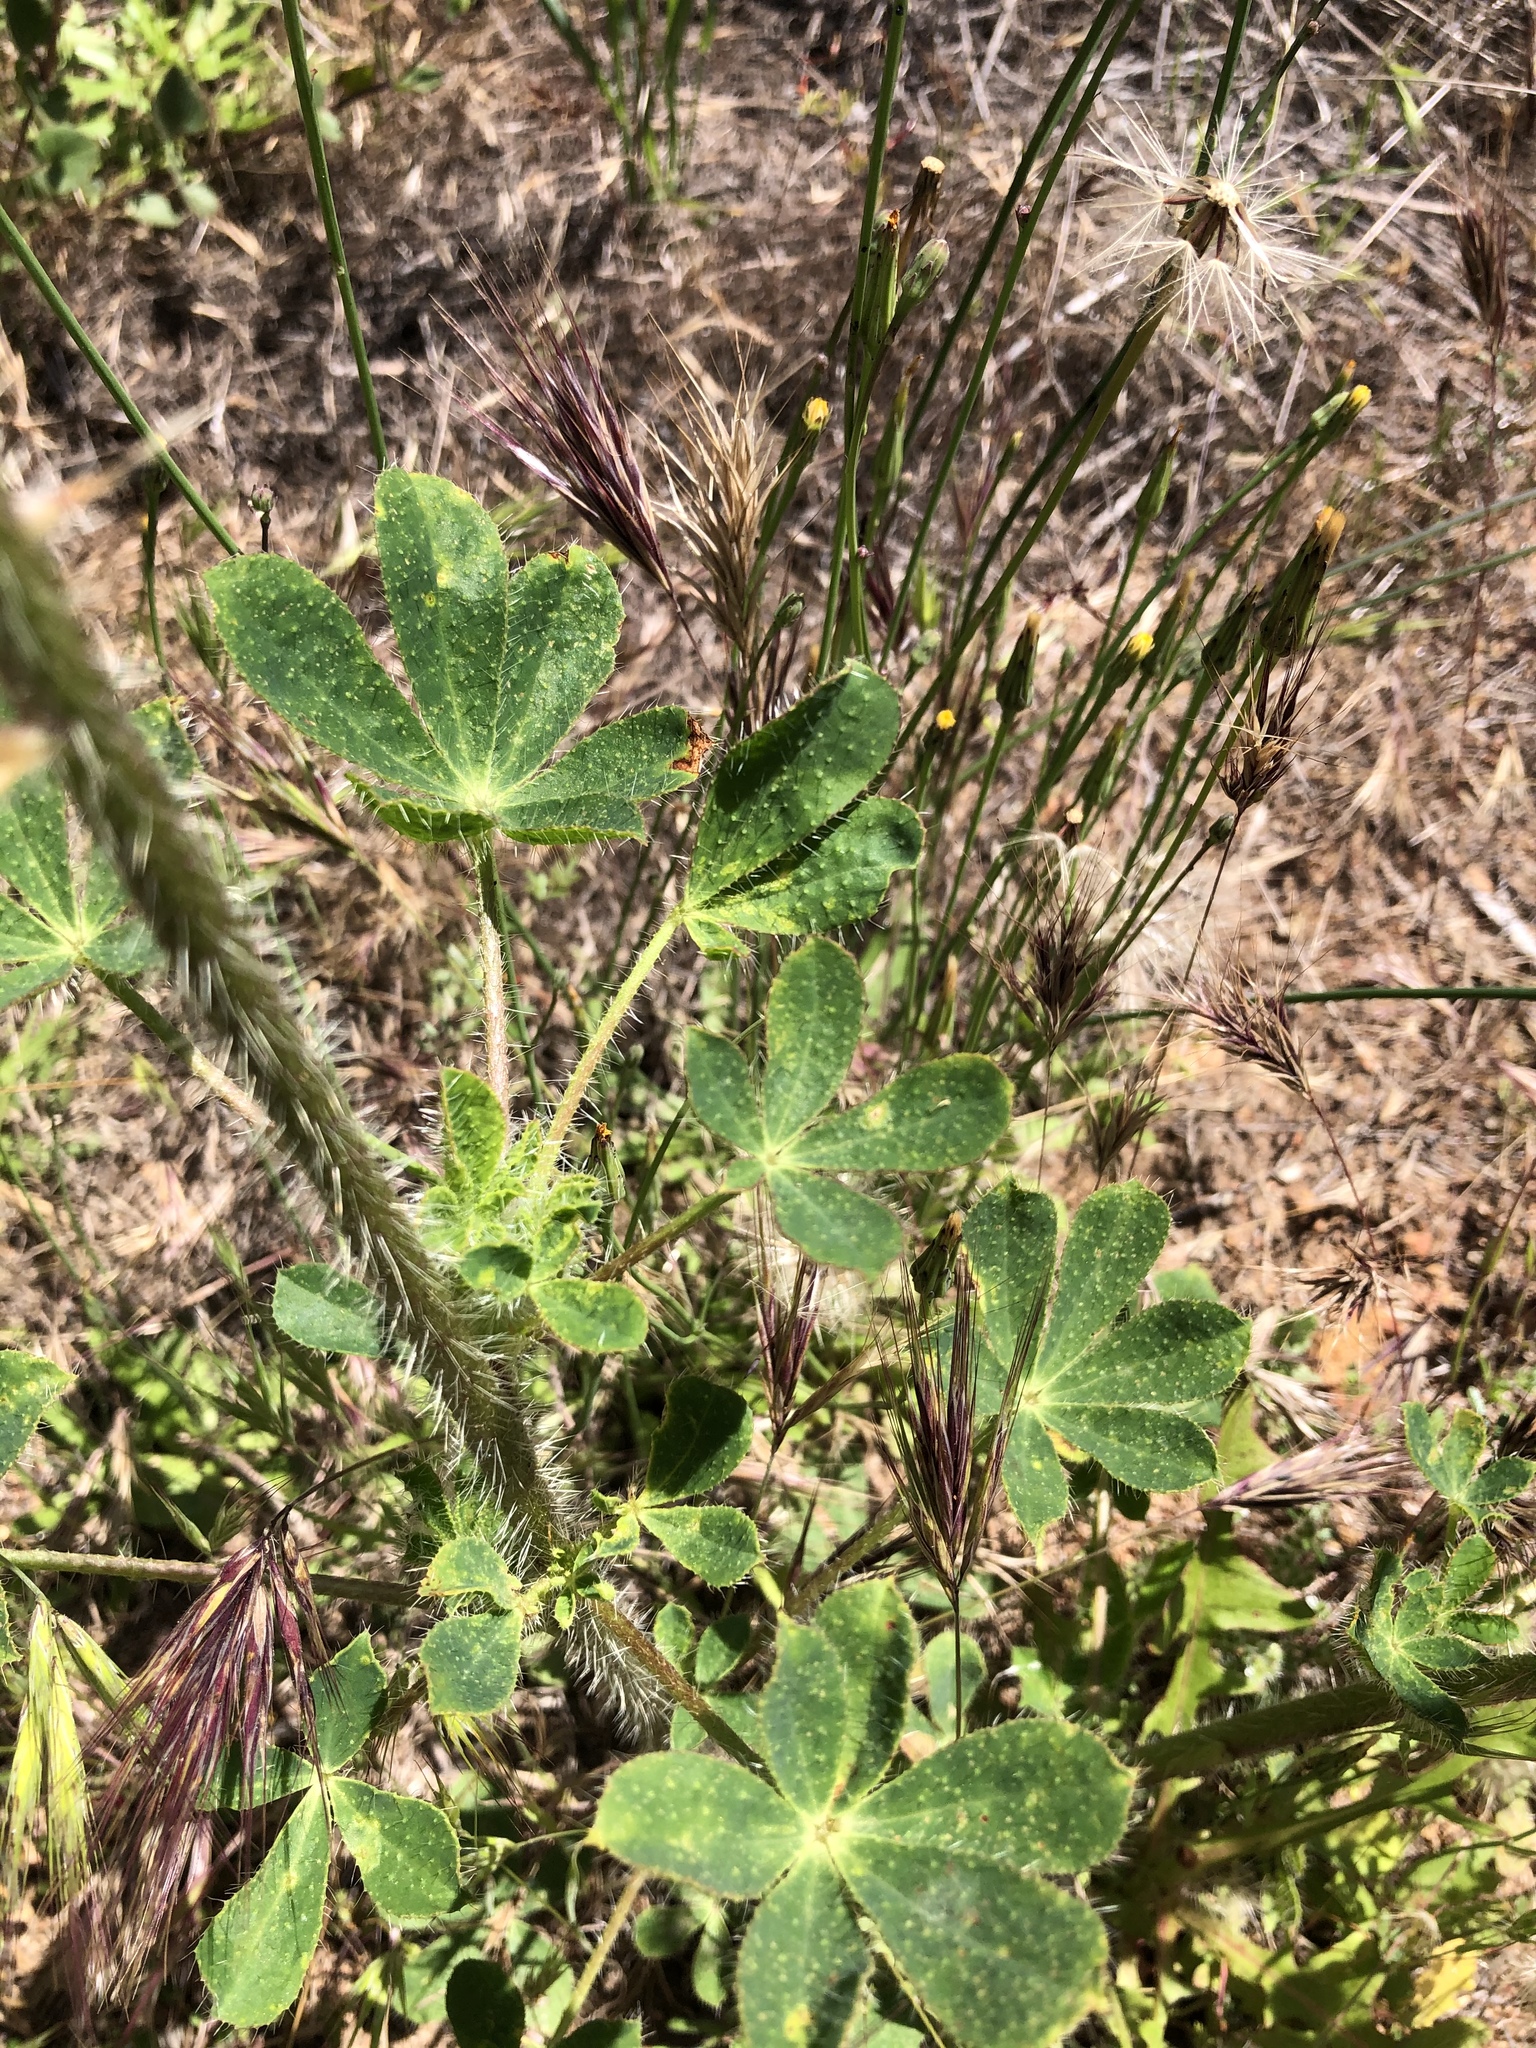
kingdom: Plantae
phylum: Tracheophyta
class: Magnoliopsida
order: Fabales
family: Fabaceae
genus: Lupinus
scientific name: Lupinus hirsutissimus
